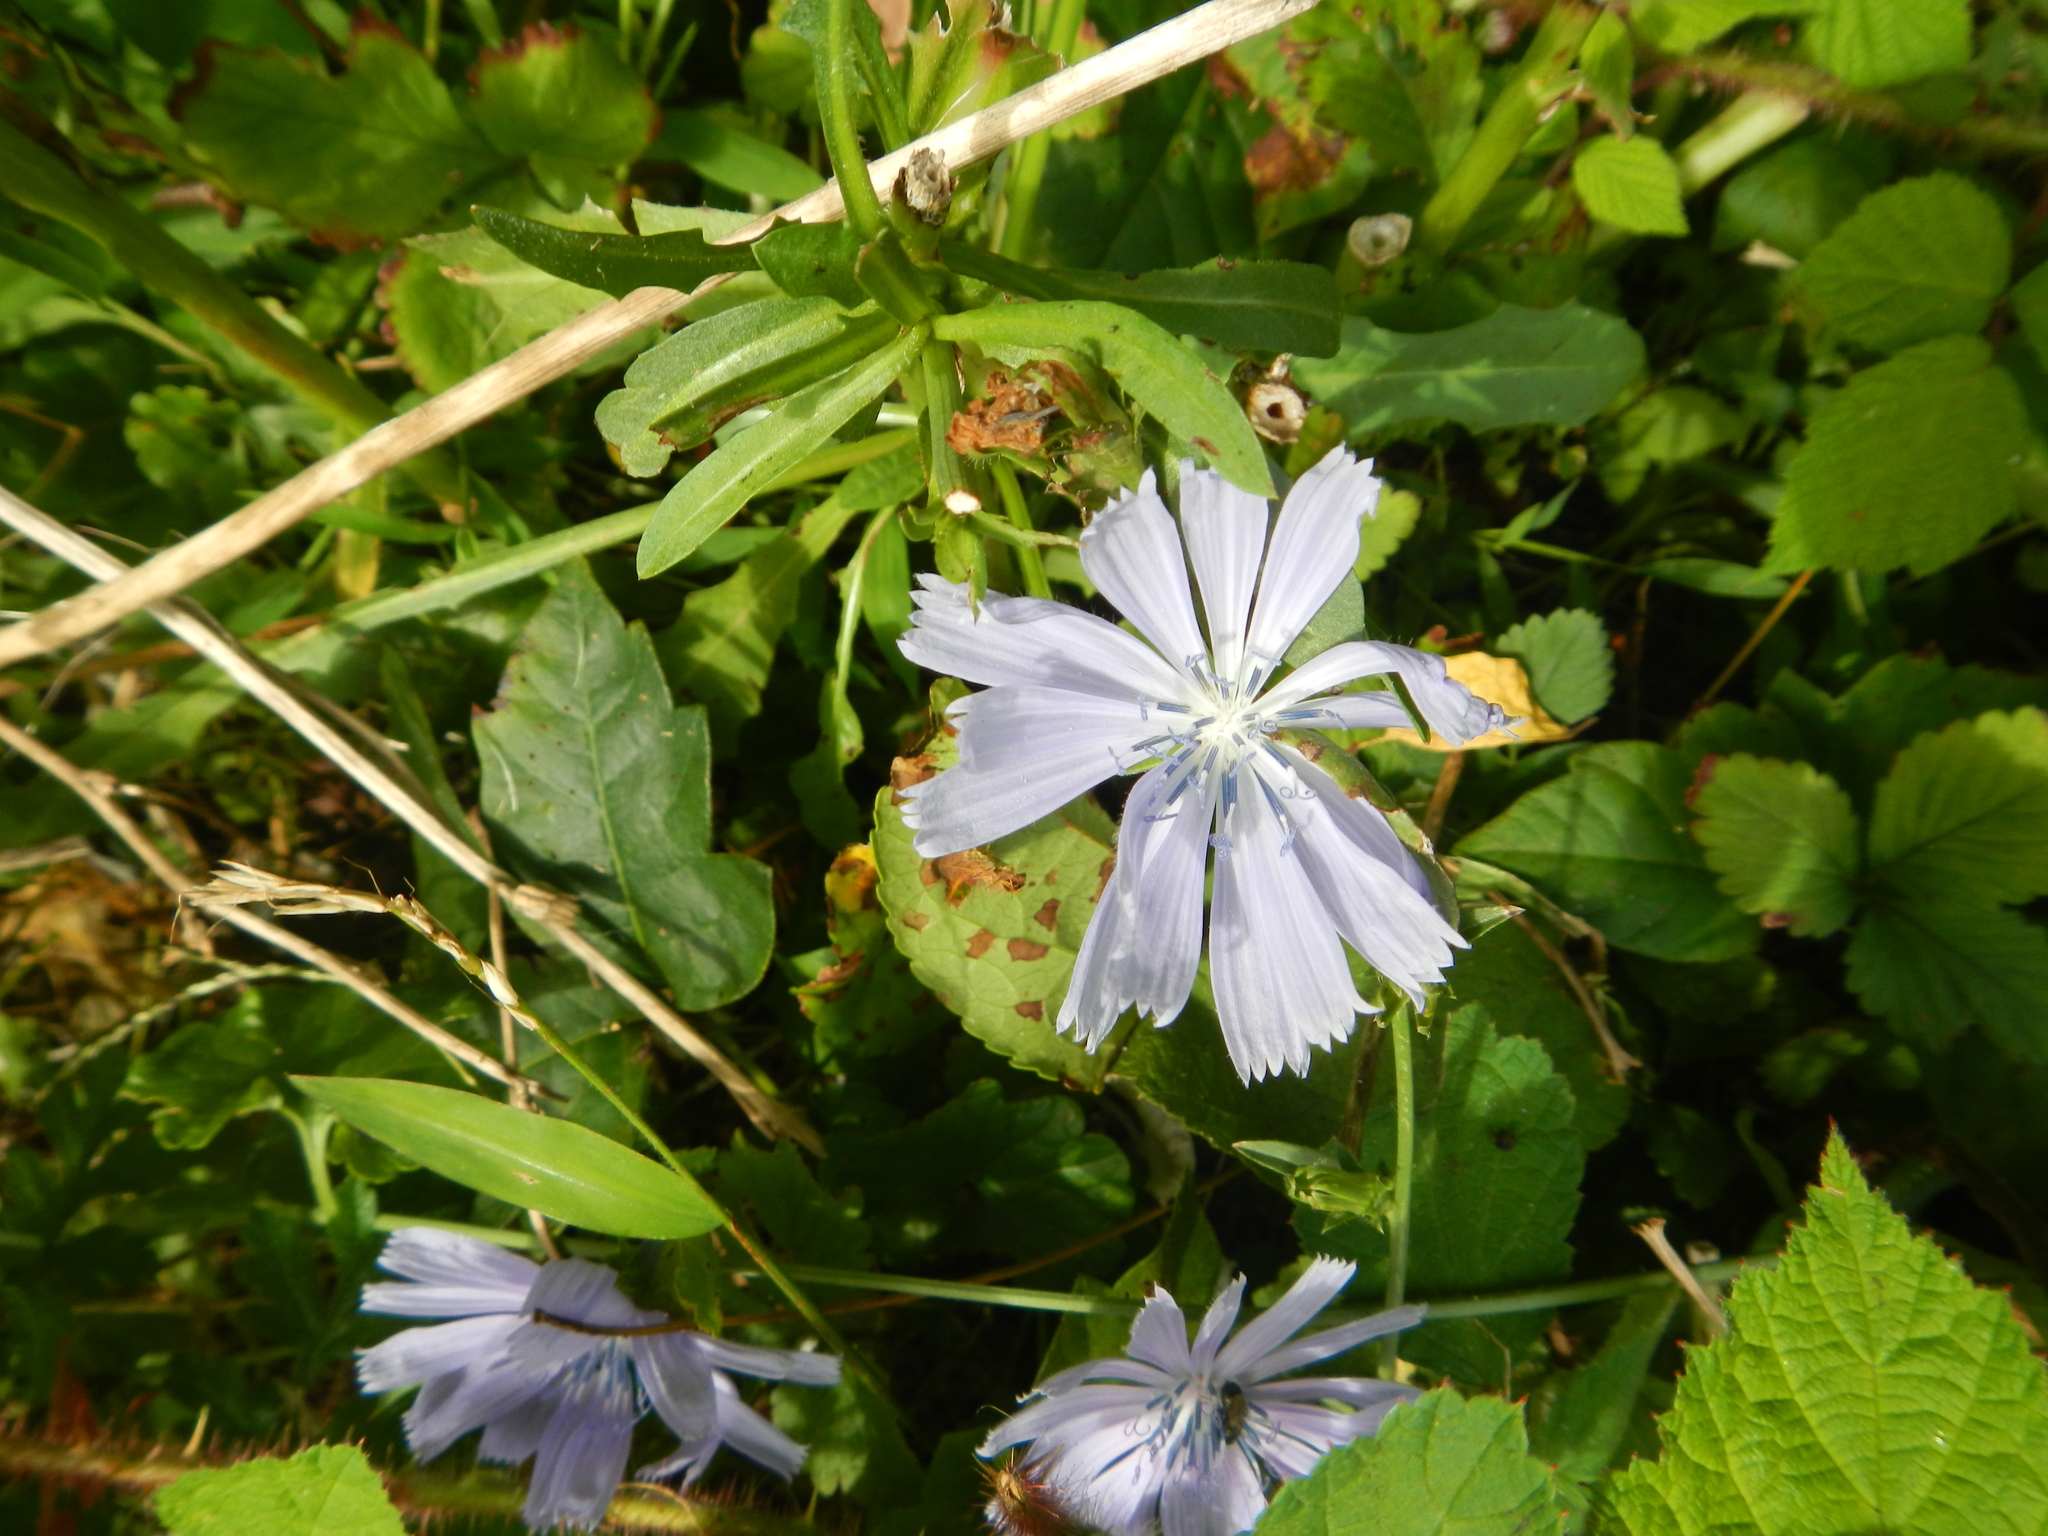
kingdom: Plantae
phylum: Tracheophyta
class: Magnoliopsida
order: Asterales
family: Asteraceae
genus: Cichorium
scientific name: Cichorium intybus
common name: Chicory
